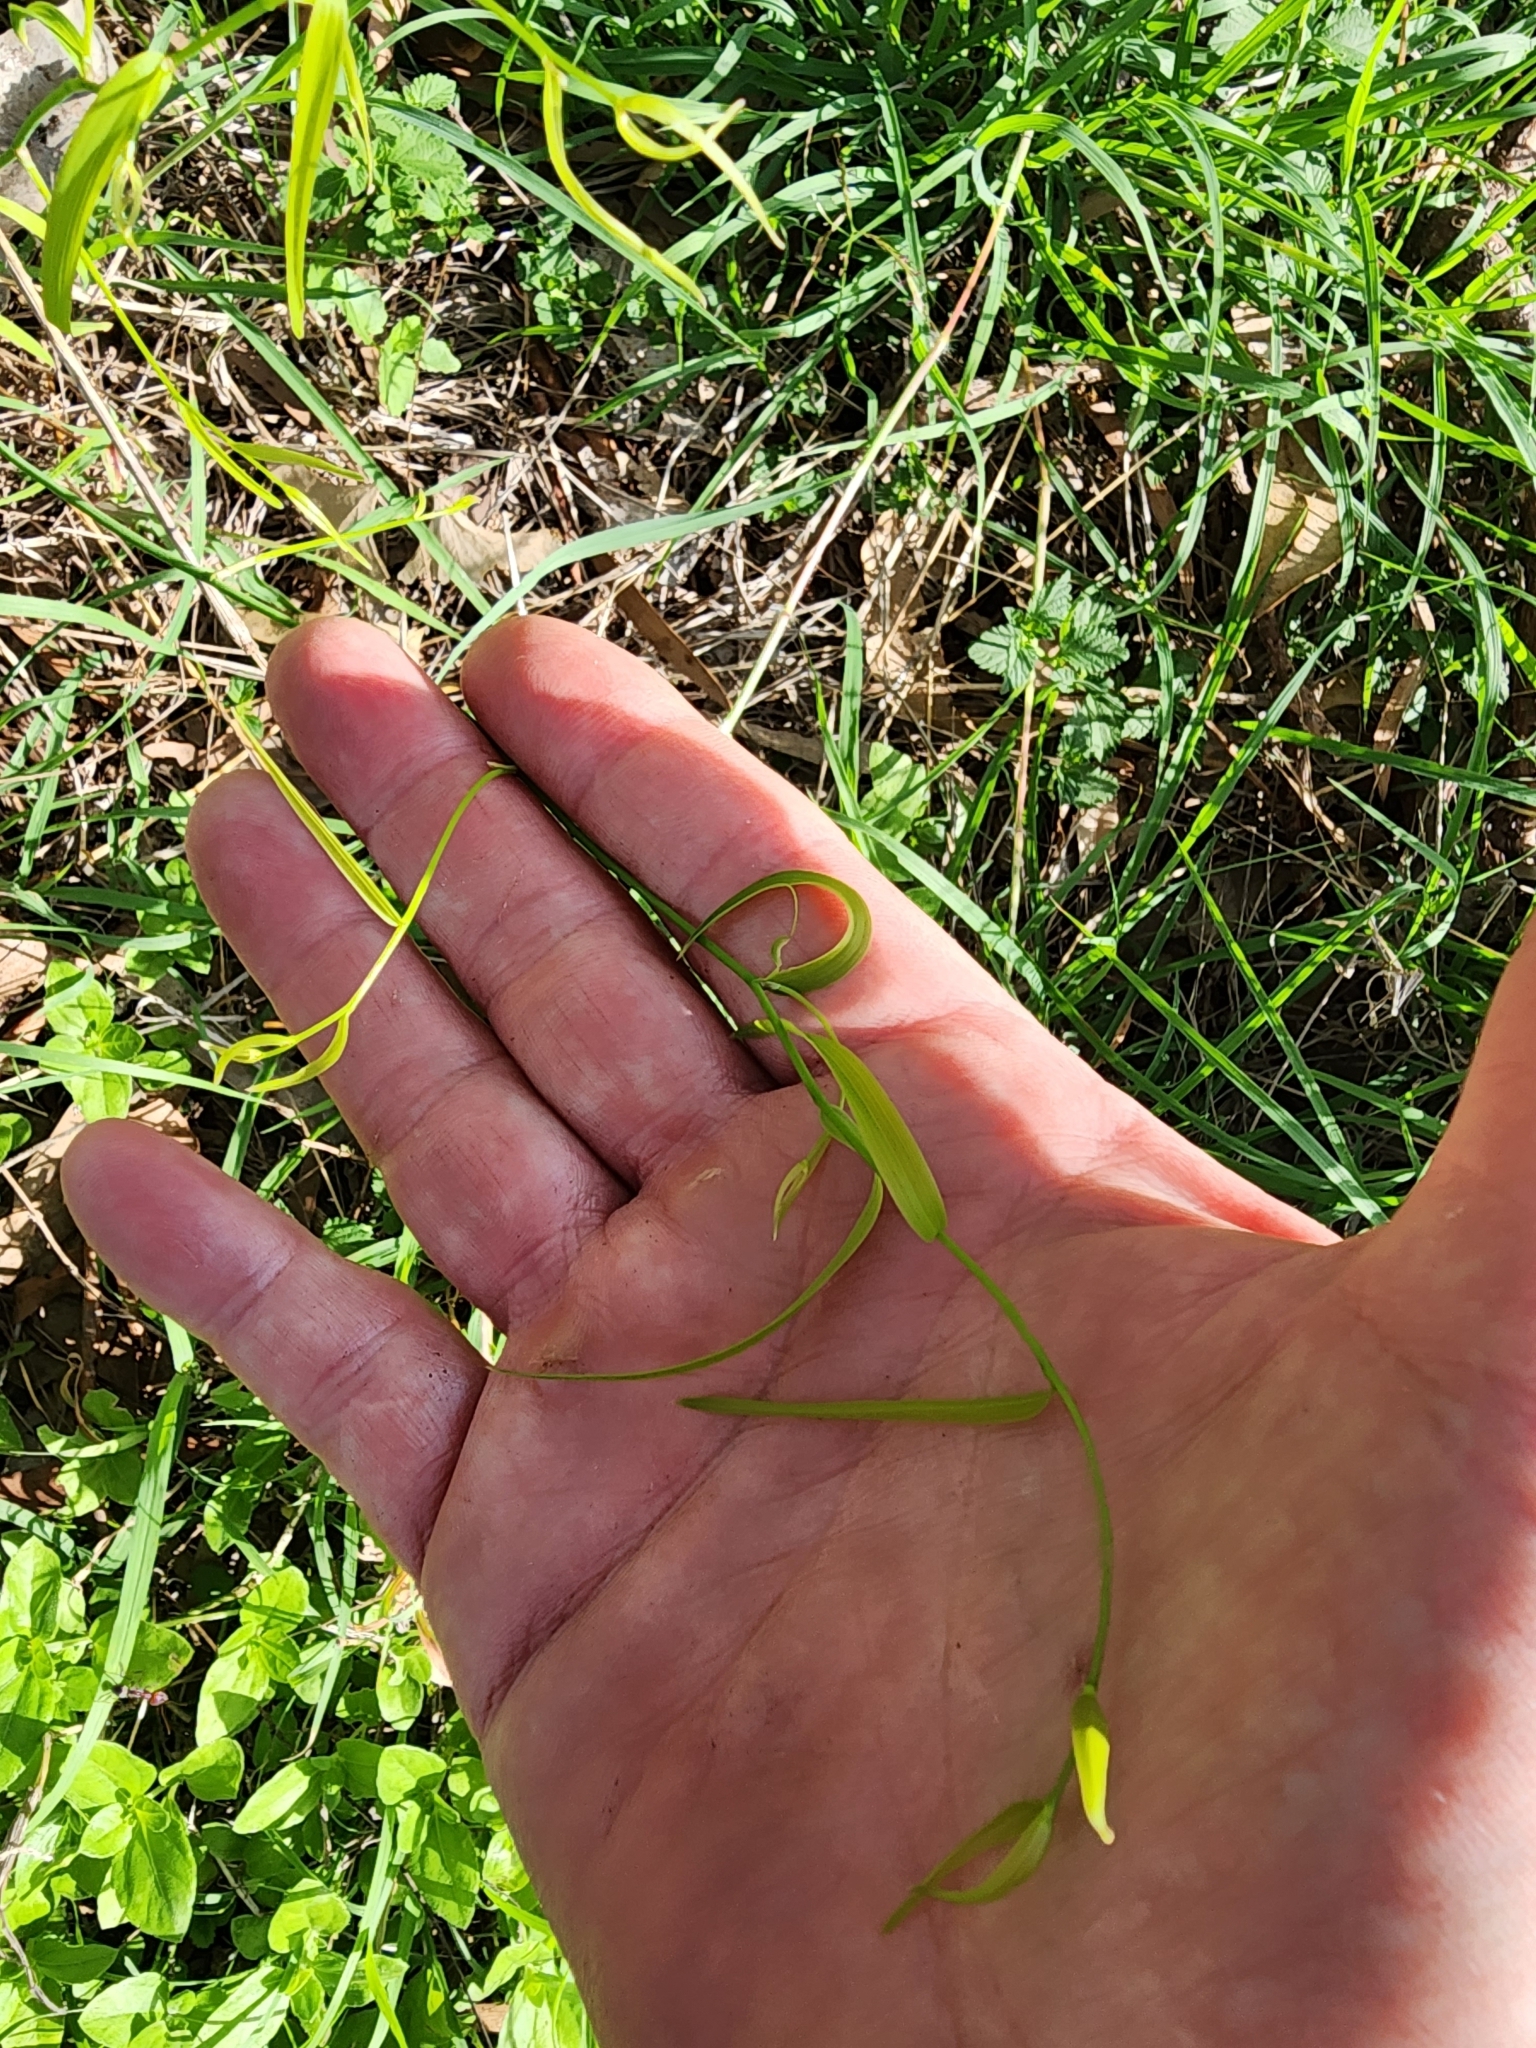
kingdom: Plantae
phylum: Tracheophyta
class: Liliopsida
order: Asparagales
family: Asparagaceae
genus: Eustrephus
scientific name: Eustrephus latifolius
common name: Orangevine
